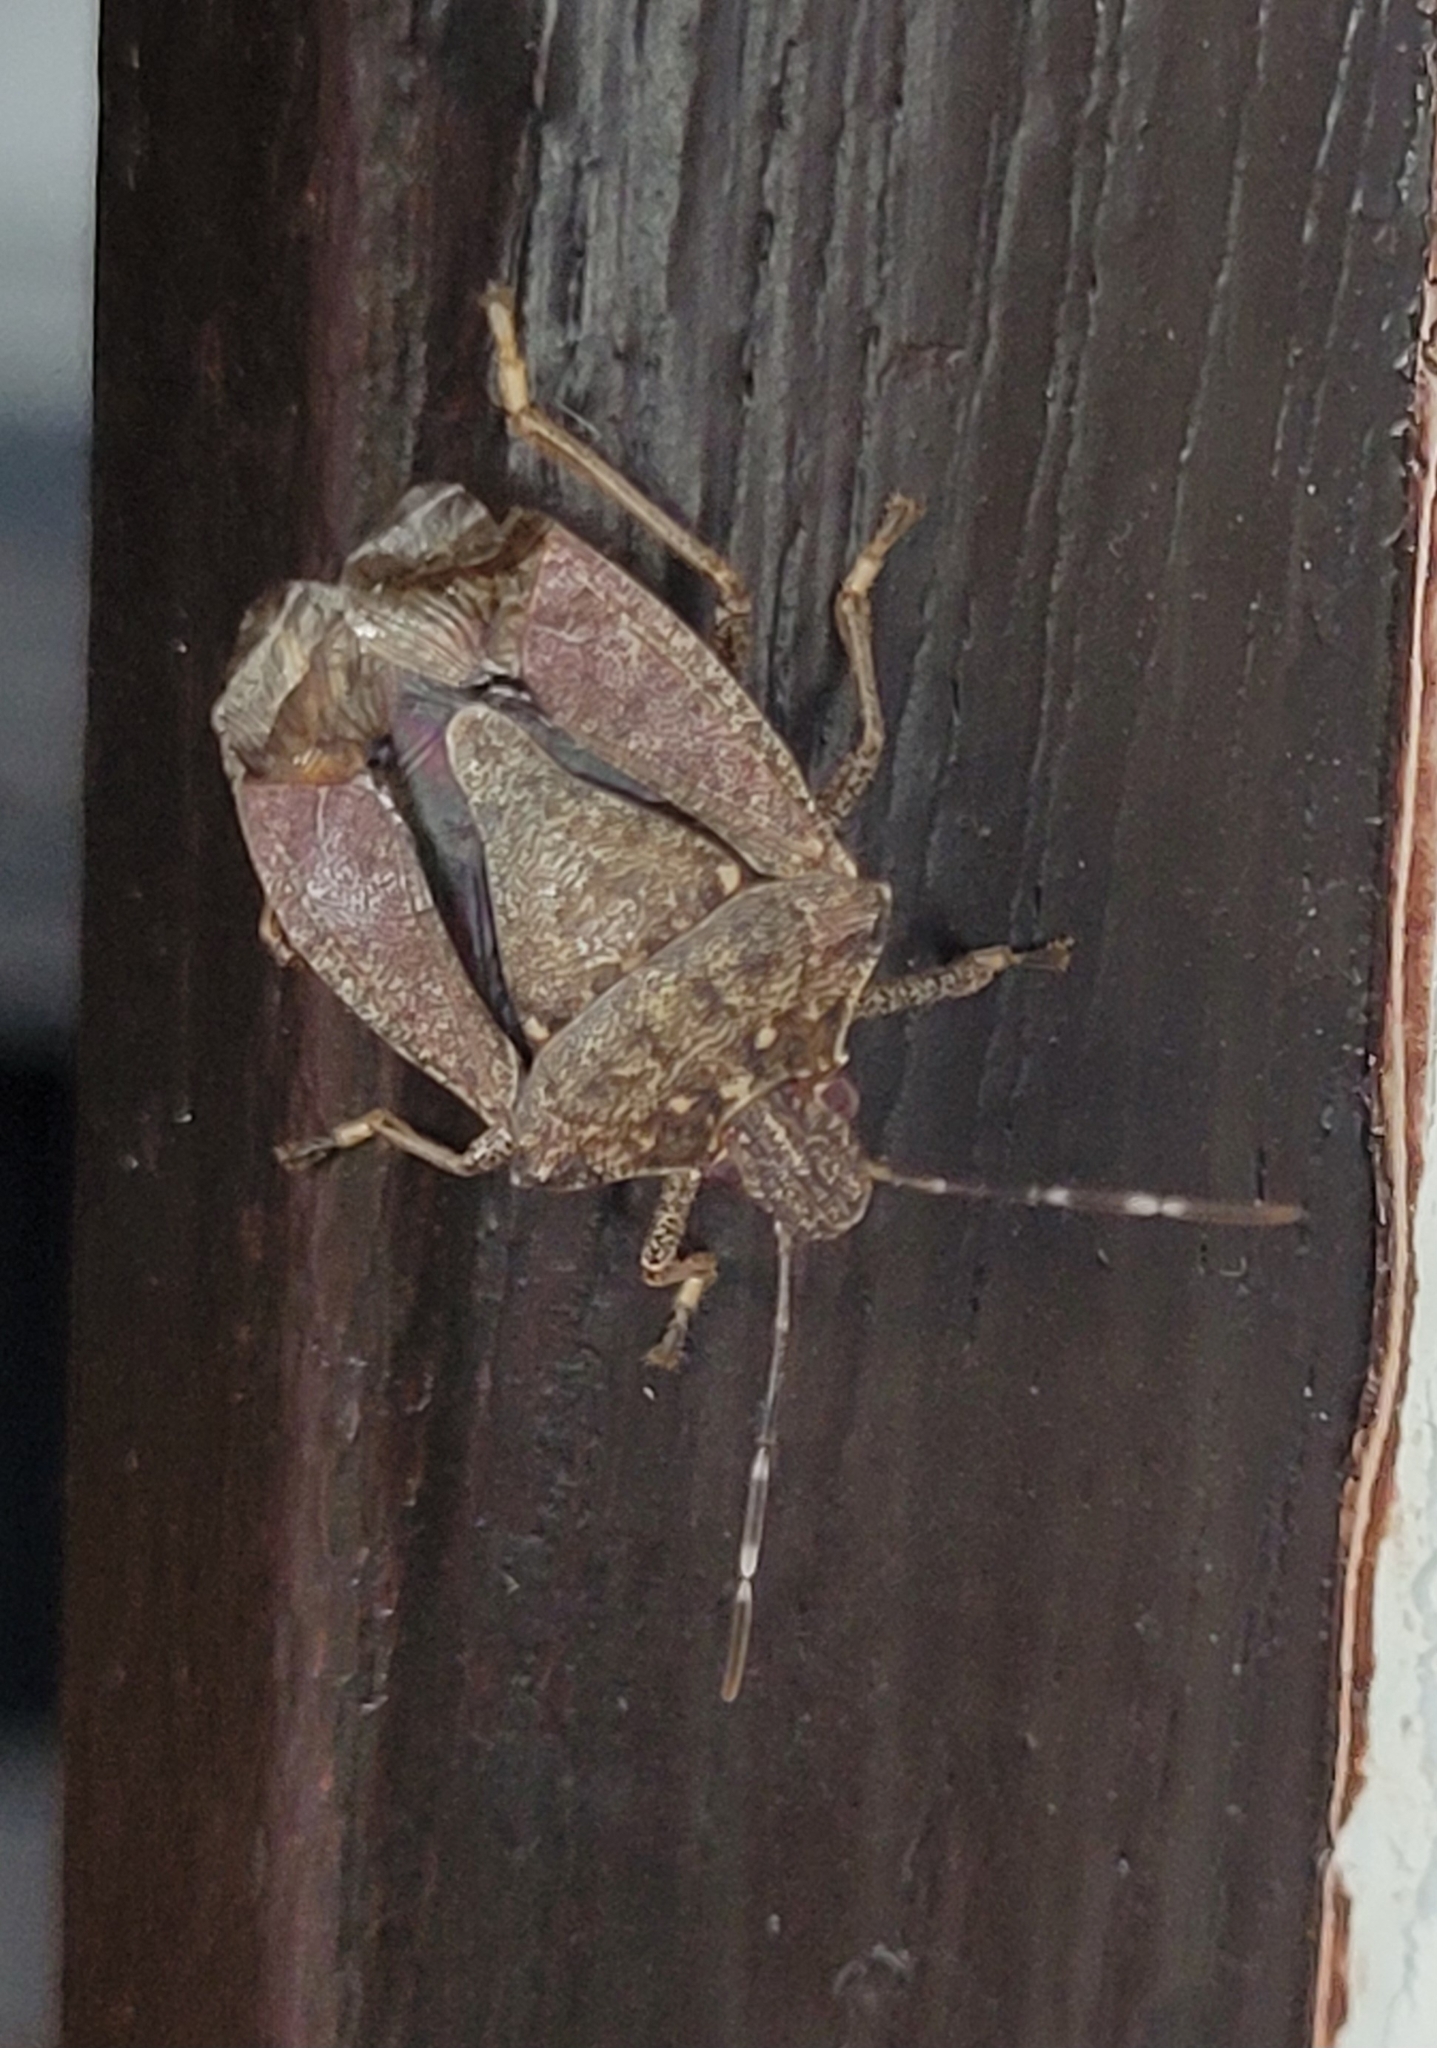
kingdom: Animalia
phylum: Arthropoda
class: Insecta
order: Hemiptera
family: Pentatomidae
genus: Halyomorpha
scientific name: Halyomorpha halys
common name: Brown marmorated stink bug
